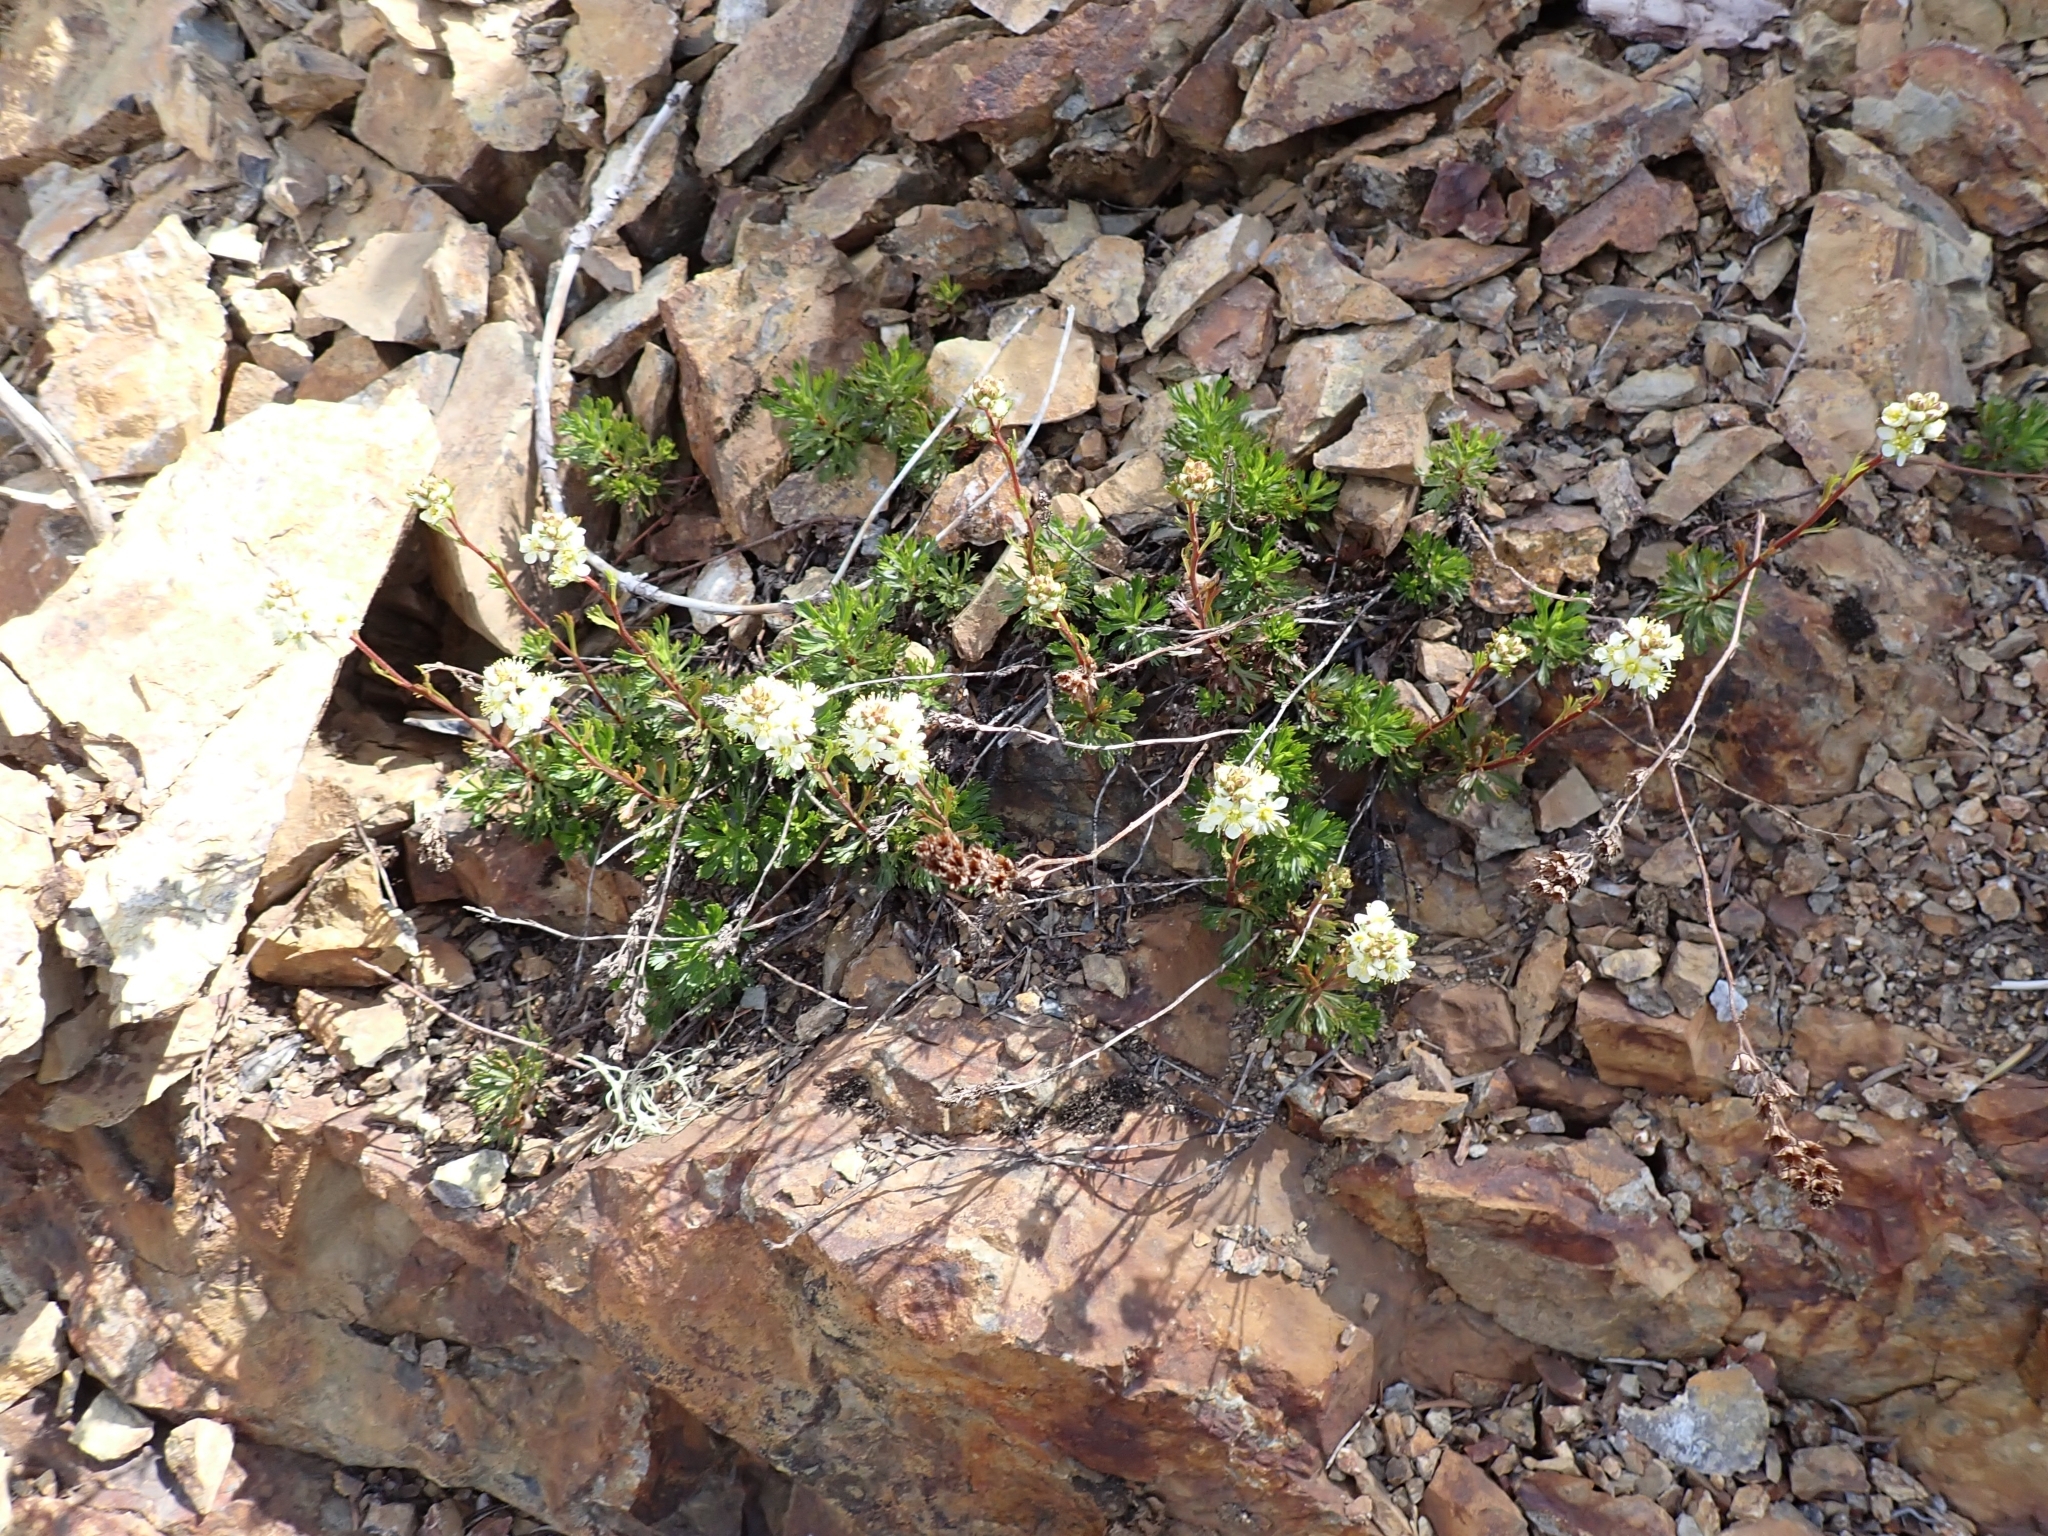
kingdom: Plantae
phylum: Tracheophyta
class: Magnoliopsida
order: Rosales
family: Rosaceae
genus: Luetkea
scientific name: Luetkea pectinata
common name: Partridgefoot
